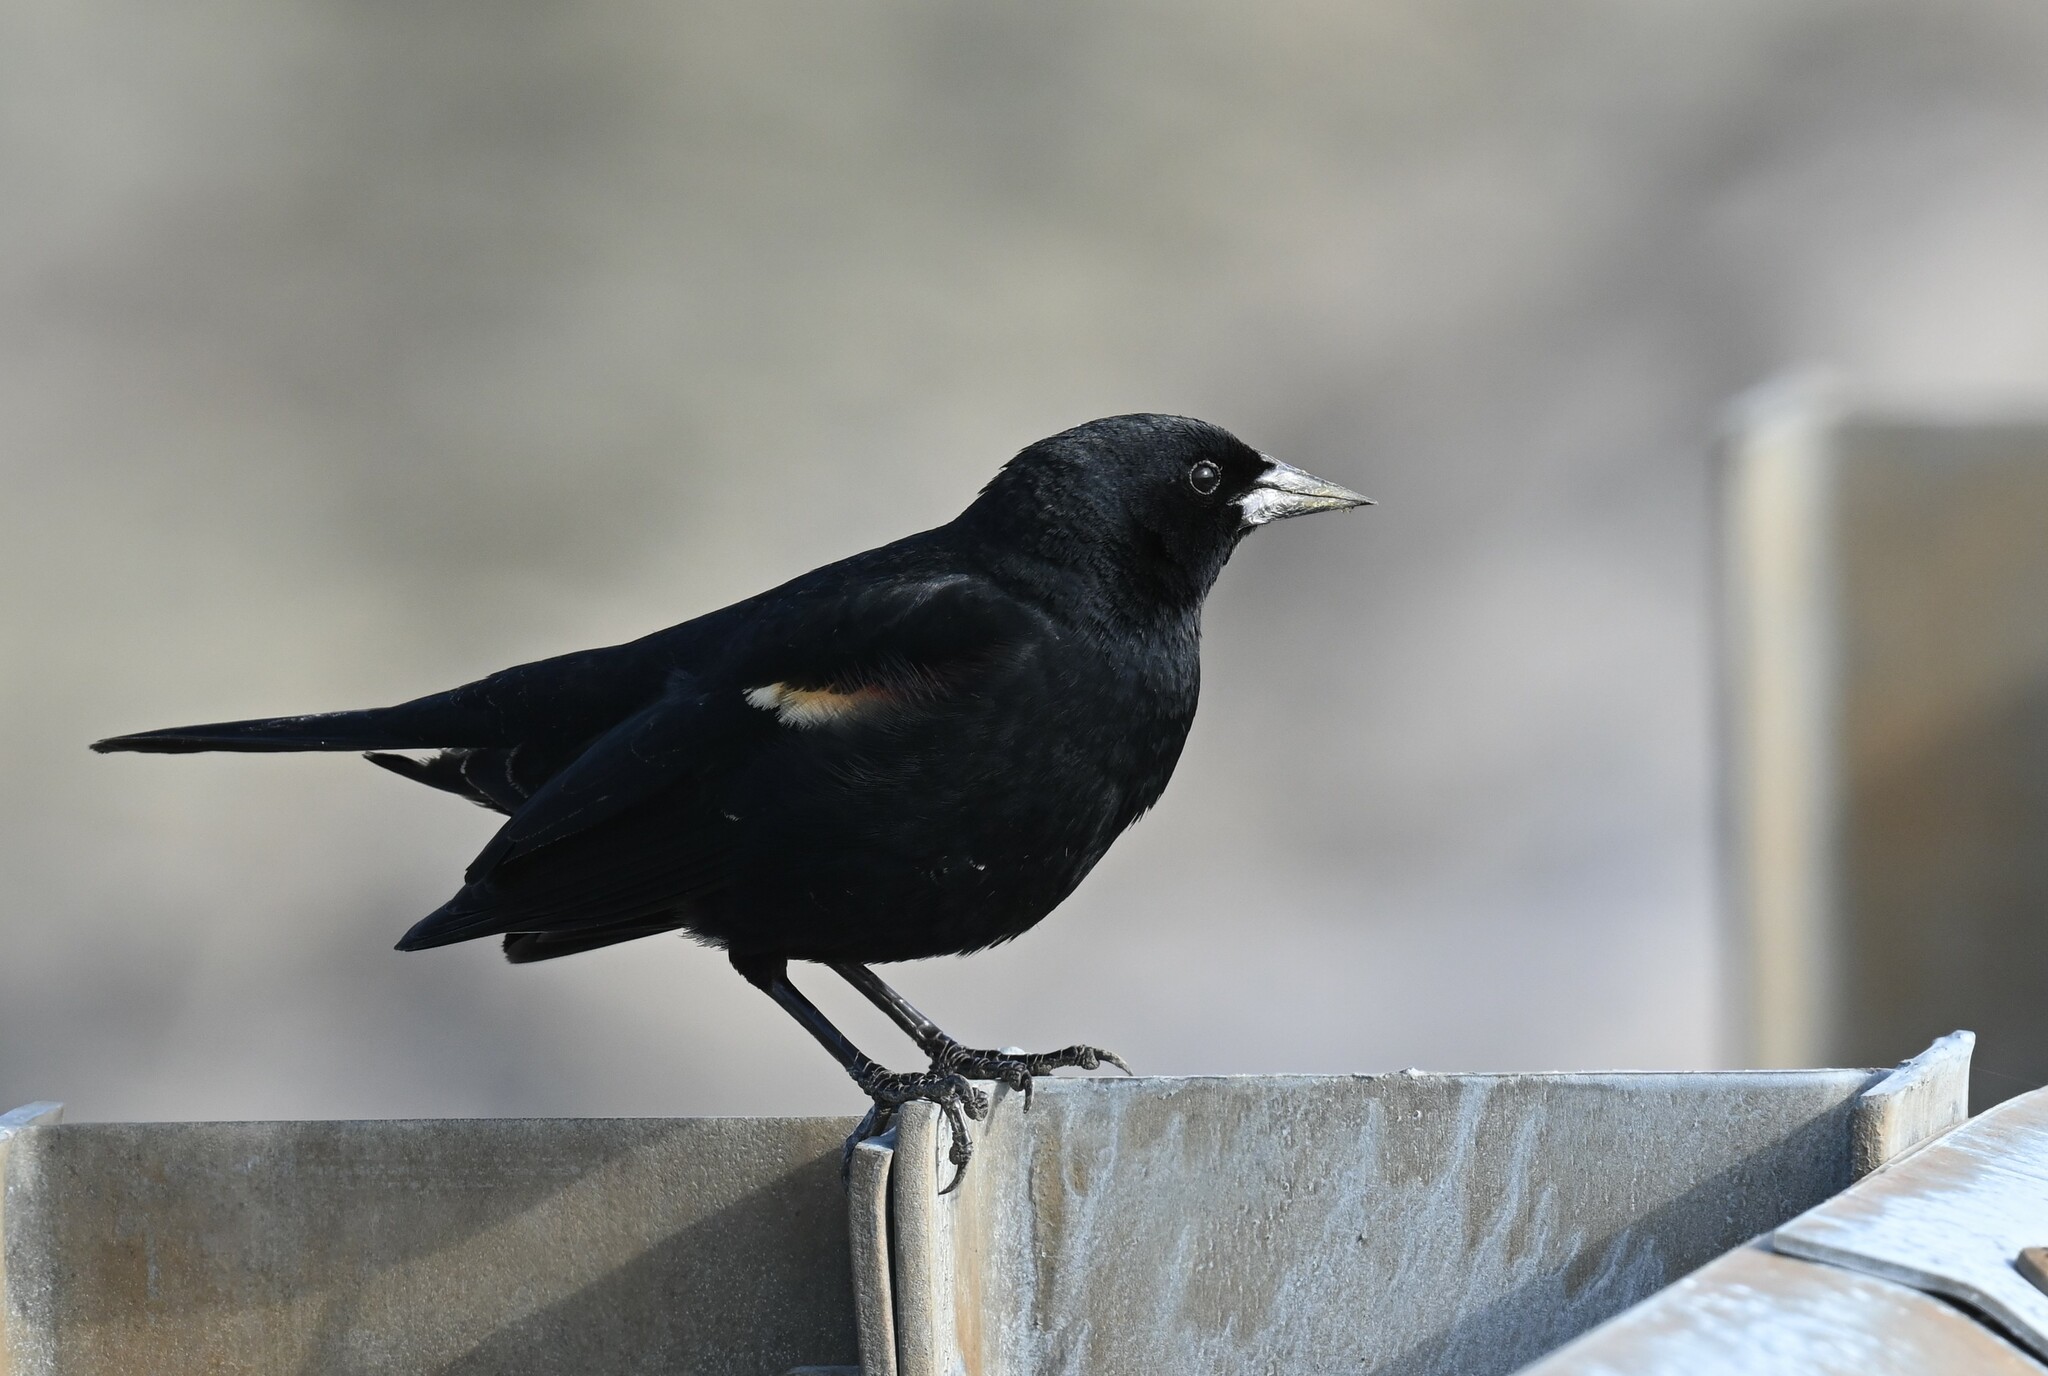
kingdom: Animalia
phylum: Chordata
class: Aves
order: Passeriformes
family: Icteridae
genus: Agelaius
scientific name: Agelaius phoeniceus
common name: Red-winged blackbird
